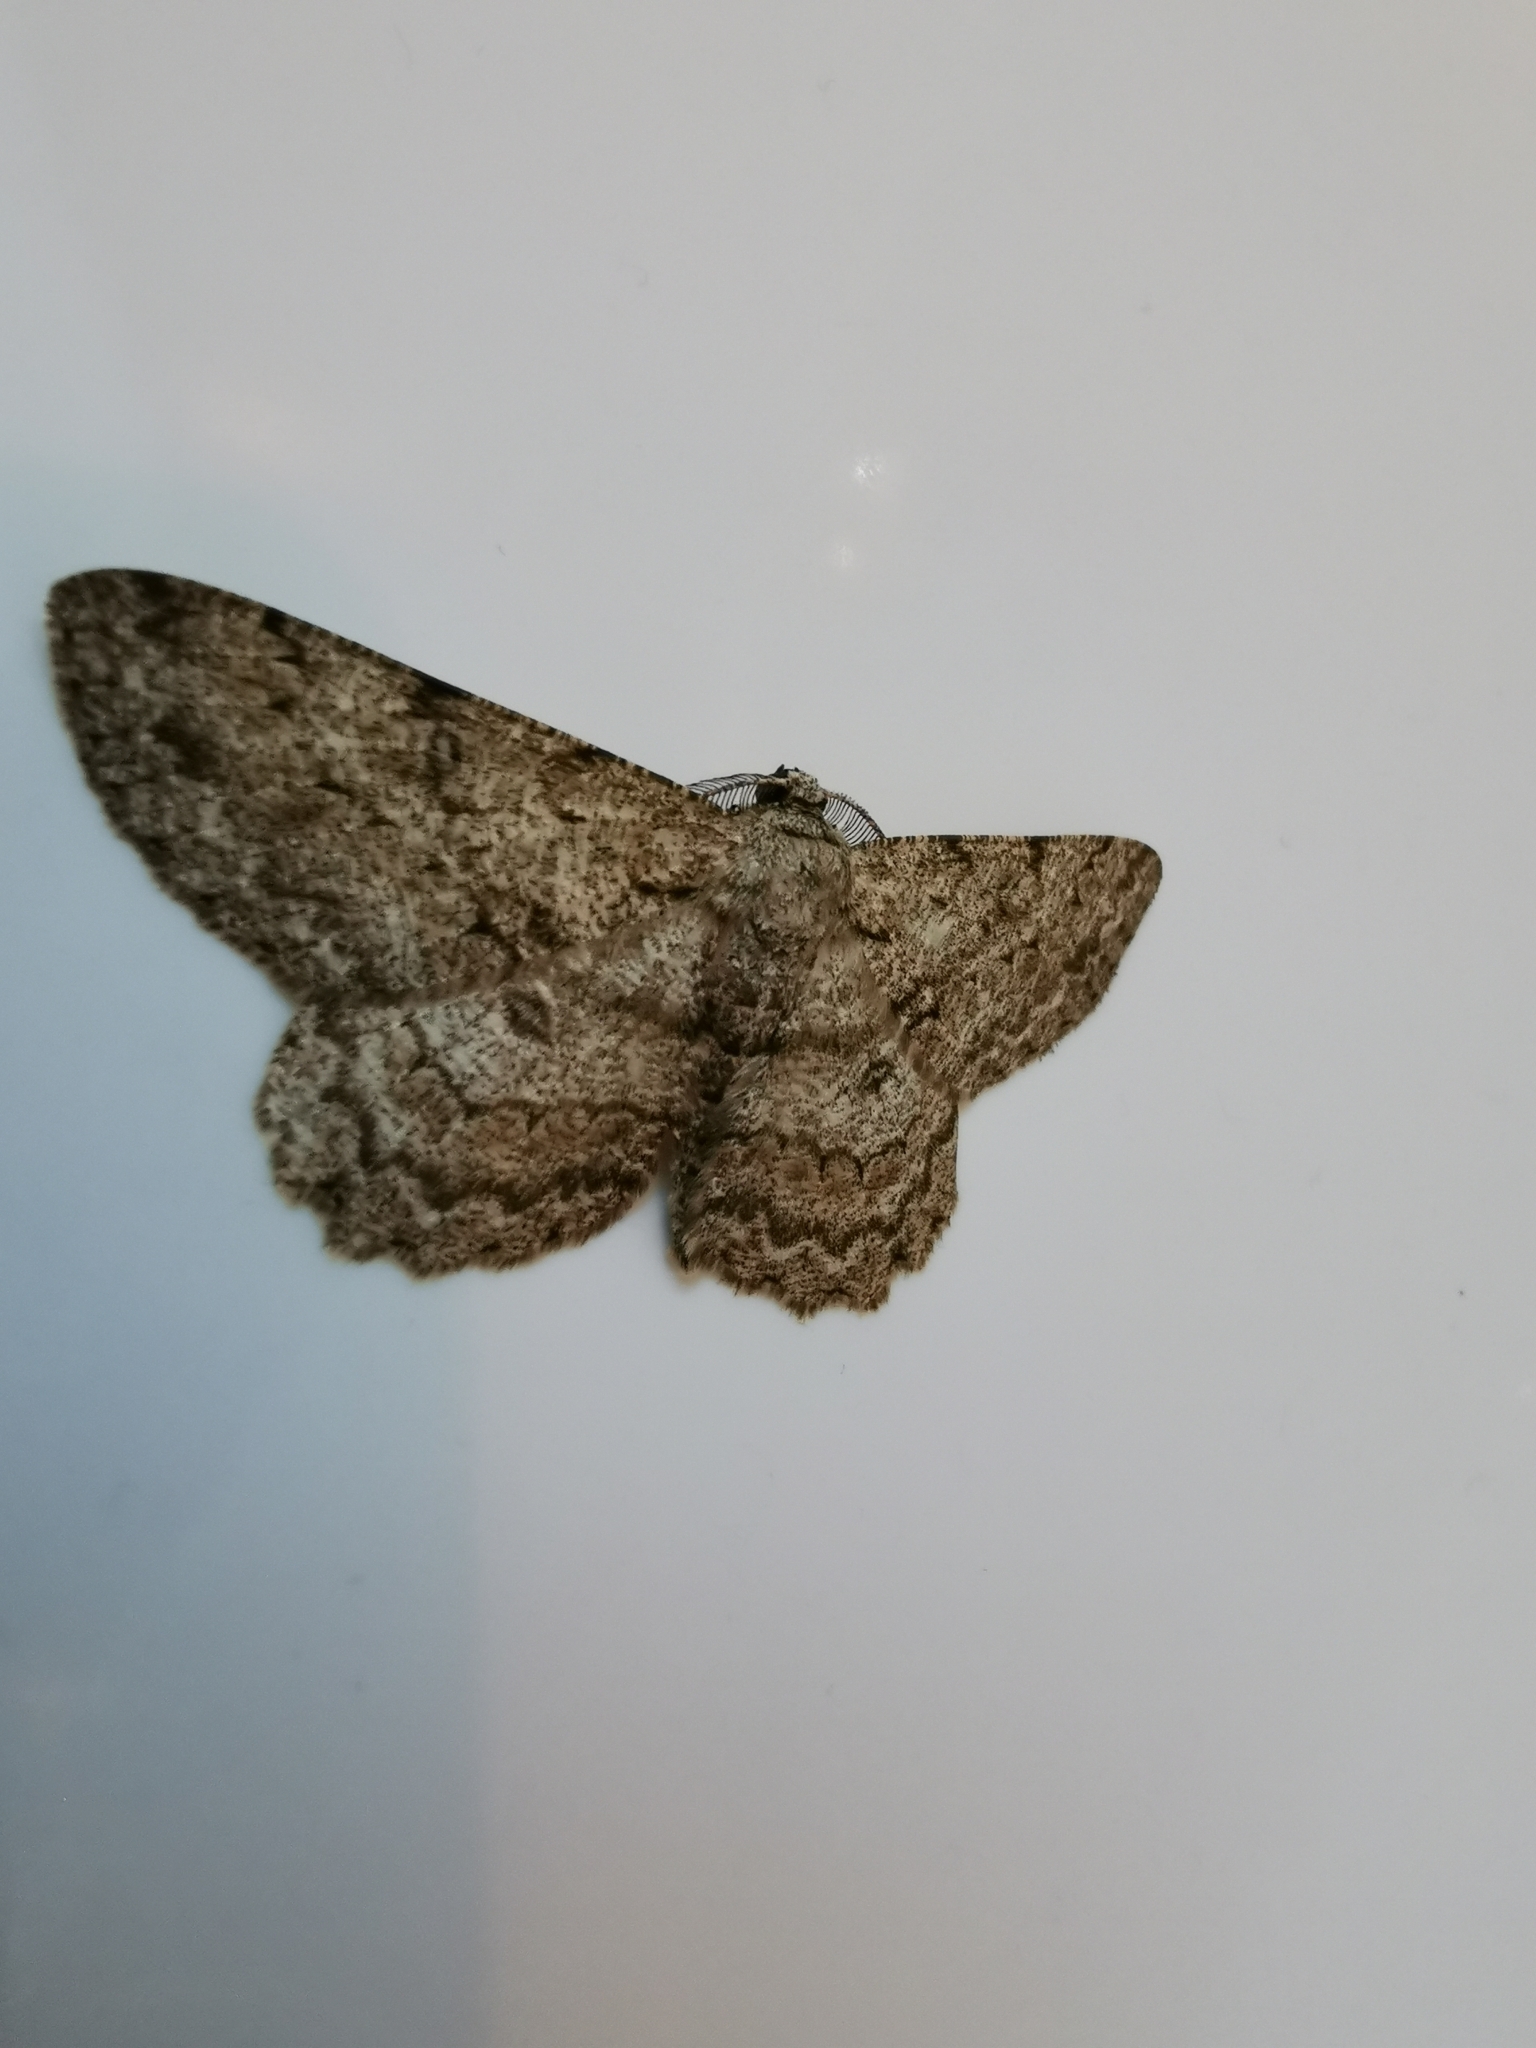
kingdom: Animalia
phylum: Arthropoda
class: Insecta
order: Lepidoptera
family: Geometridae
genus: Hypomecis
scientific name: Hypomecis punctinalis
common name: Pale oak beauty
